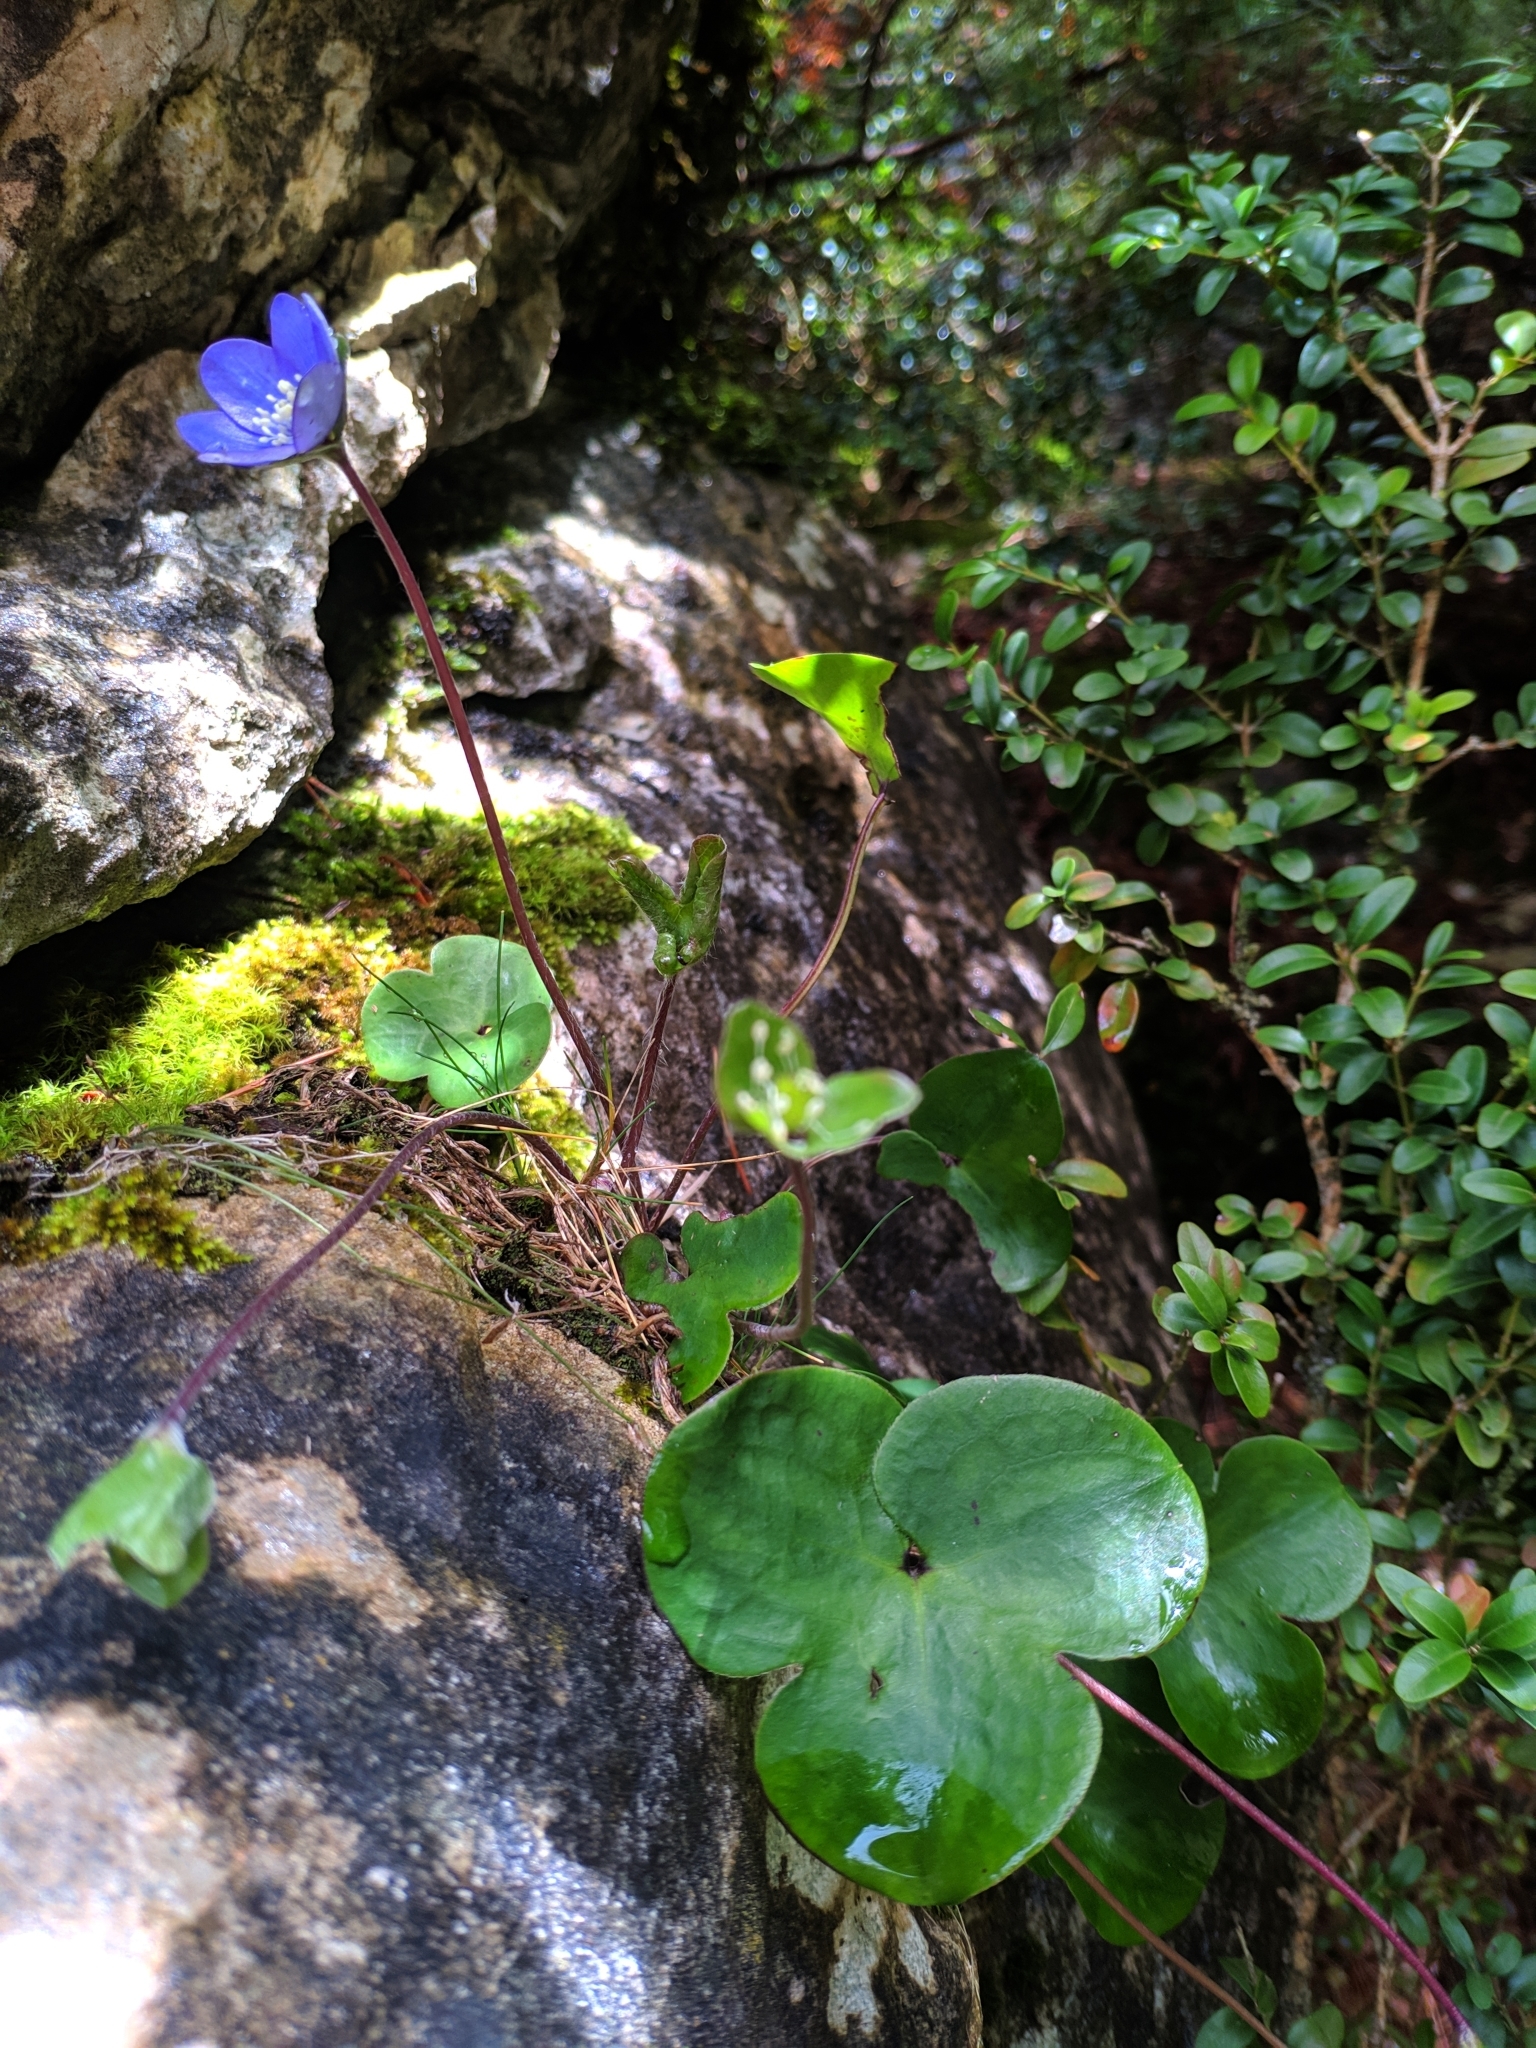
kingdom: Plantae
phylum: Tracheophyta
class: Magnoliopsida
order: Ranunculales
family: Ranunculaceae
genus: Hepatica
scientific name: Hepatica nobilis
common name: Liverleaf
